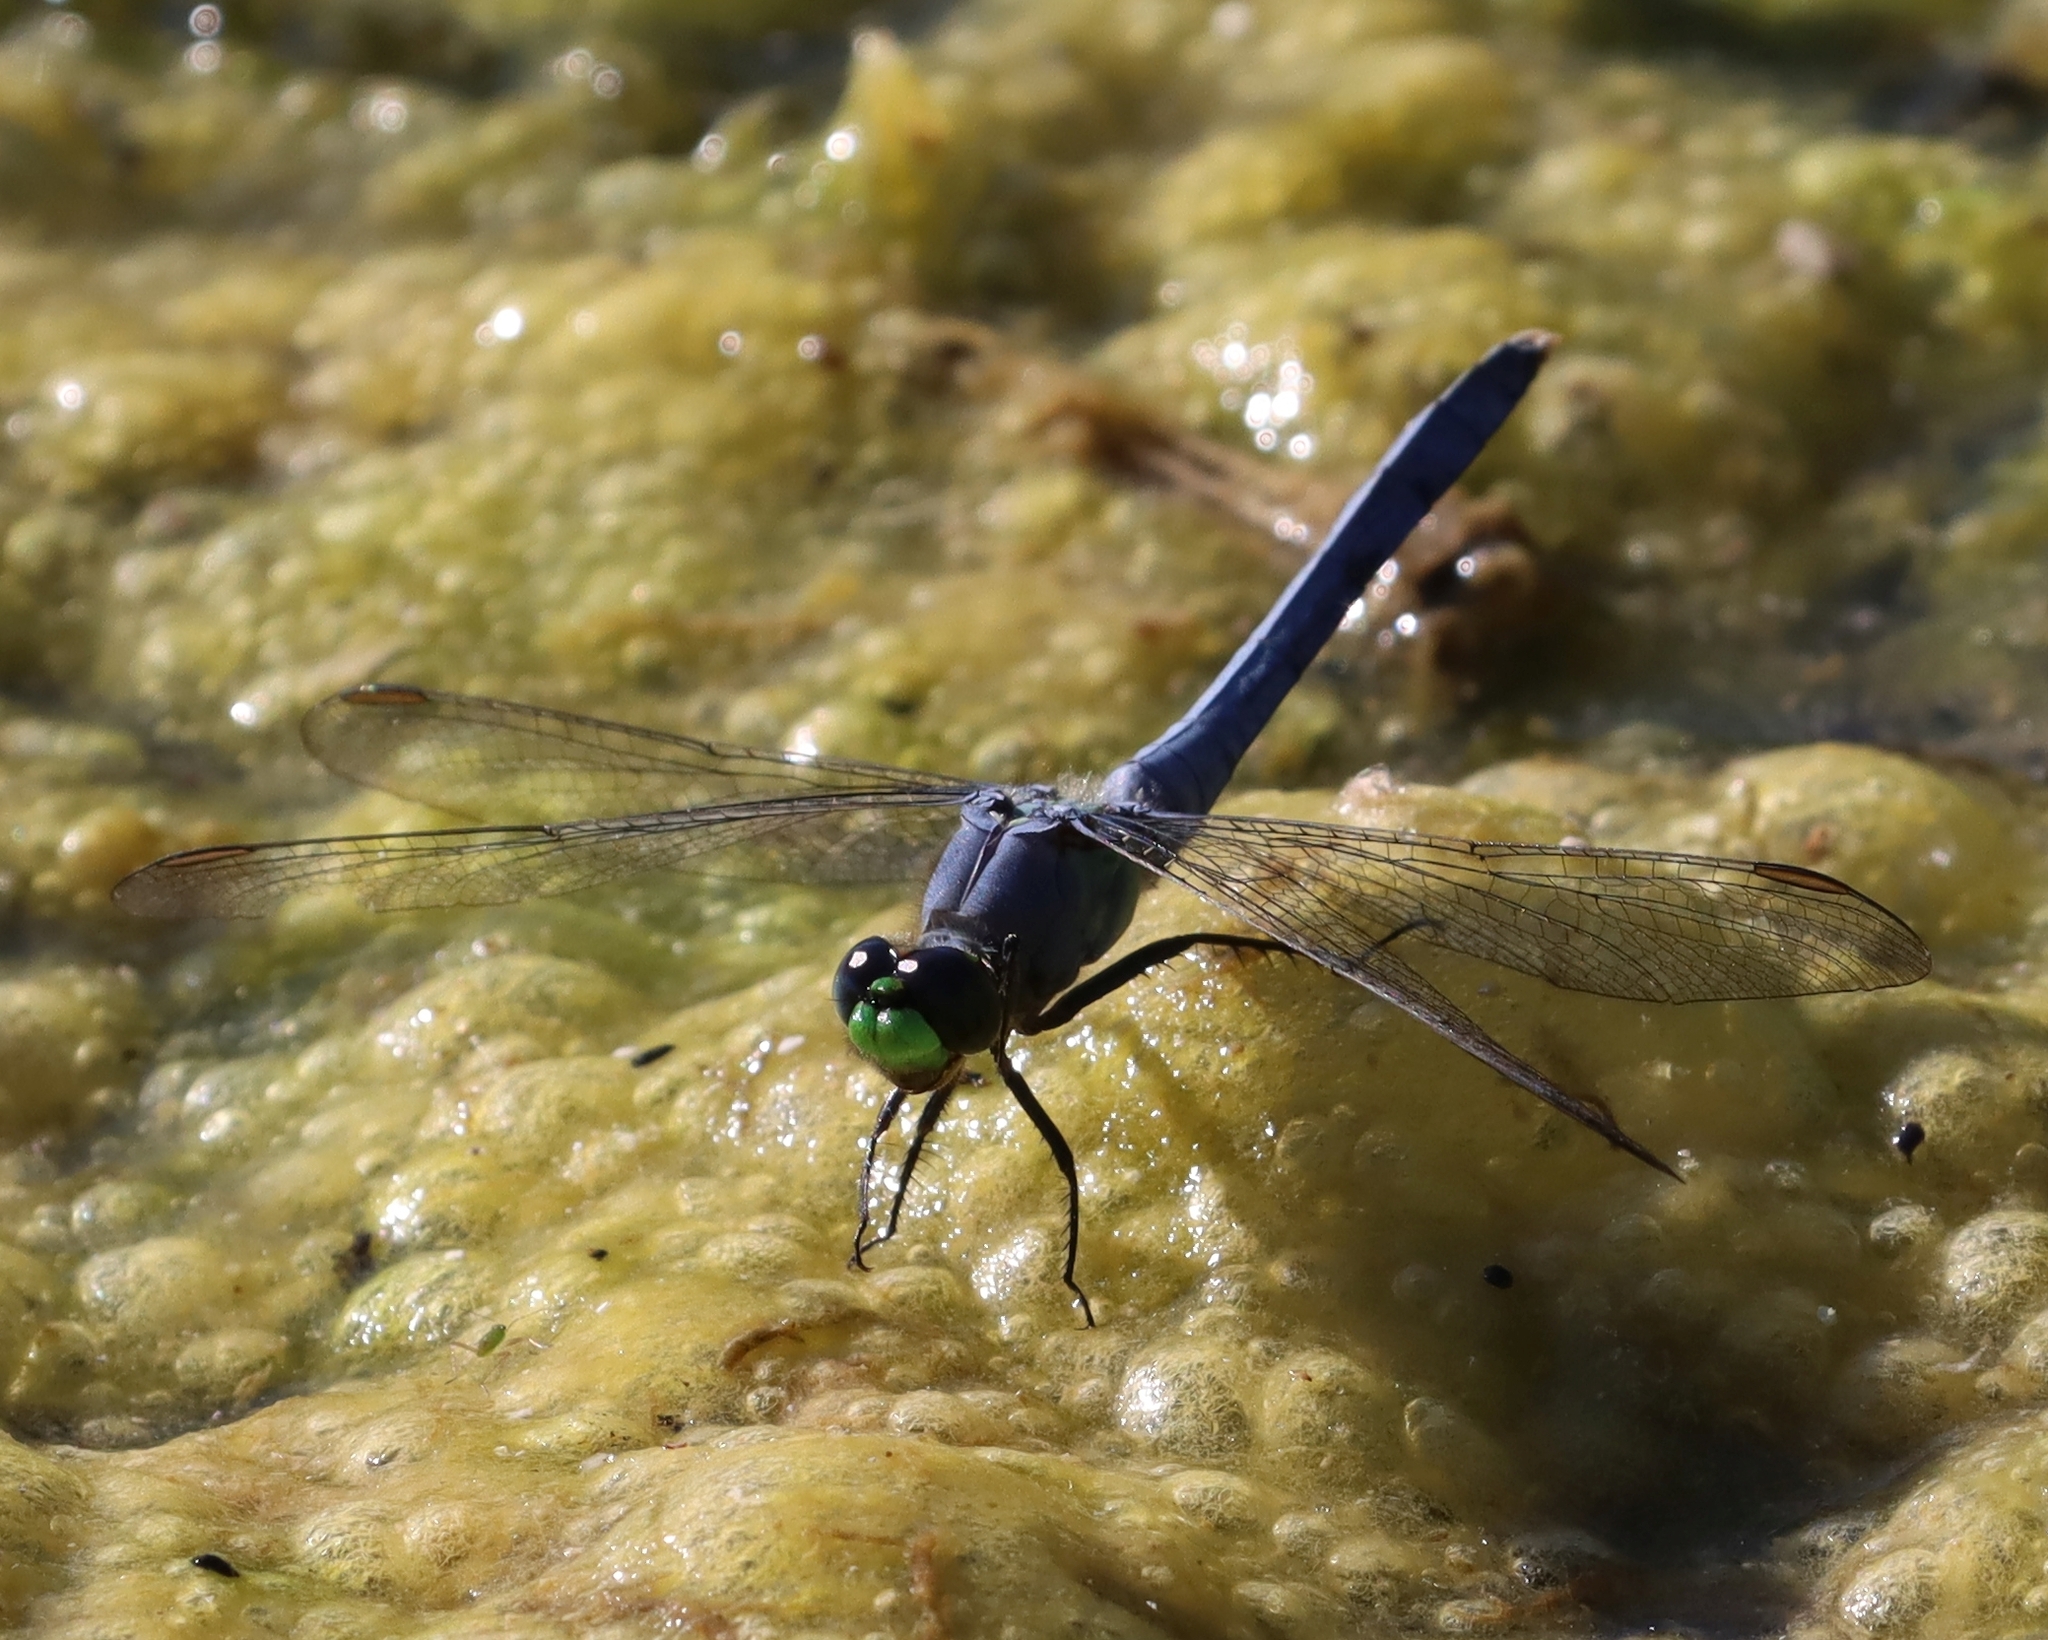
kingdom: Animalia
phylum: Arthropoda
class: Insecta
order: Odonata
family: Libellulidae
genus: Erythemis
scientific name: Erythemis simplicicollis
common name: Eastern pondhawk
